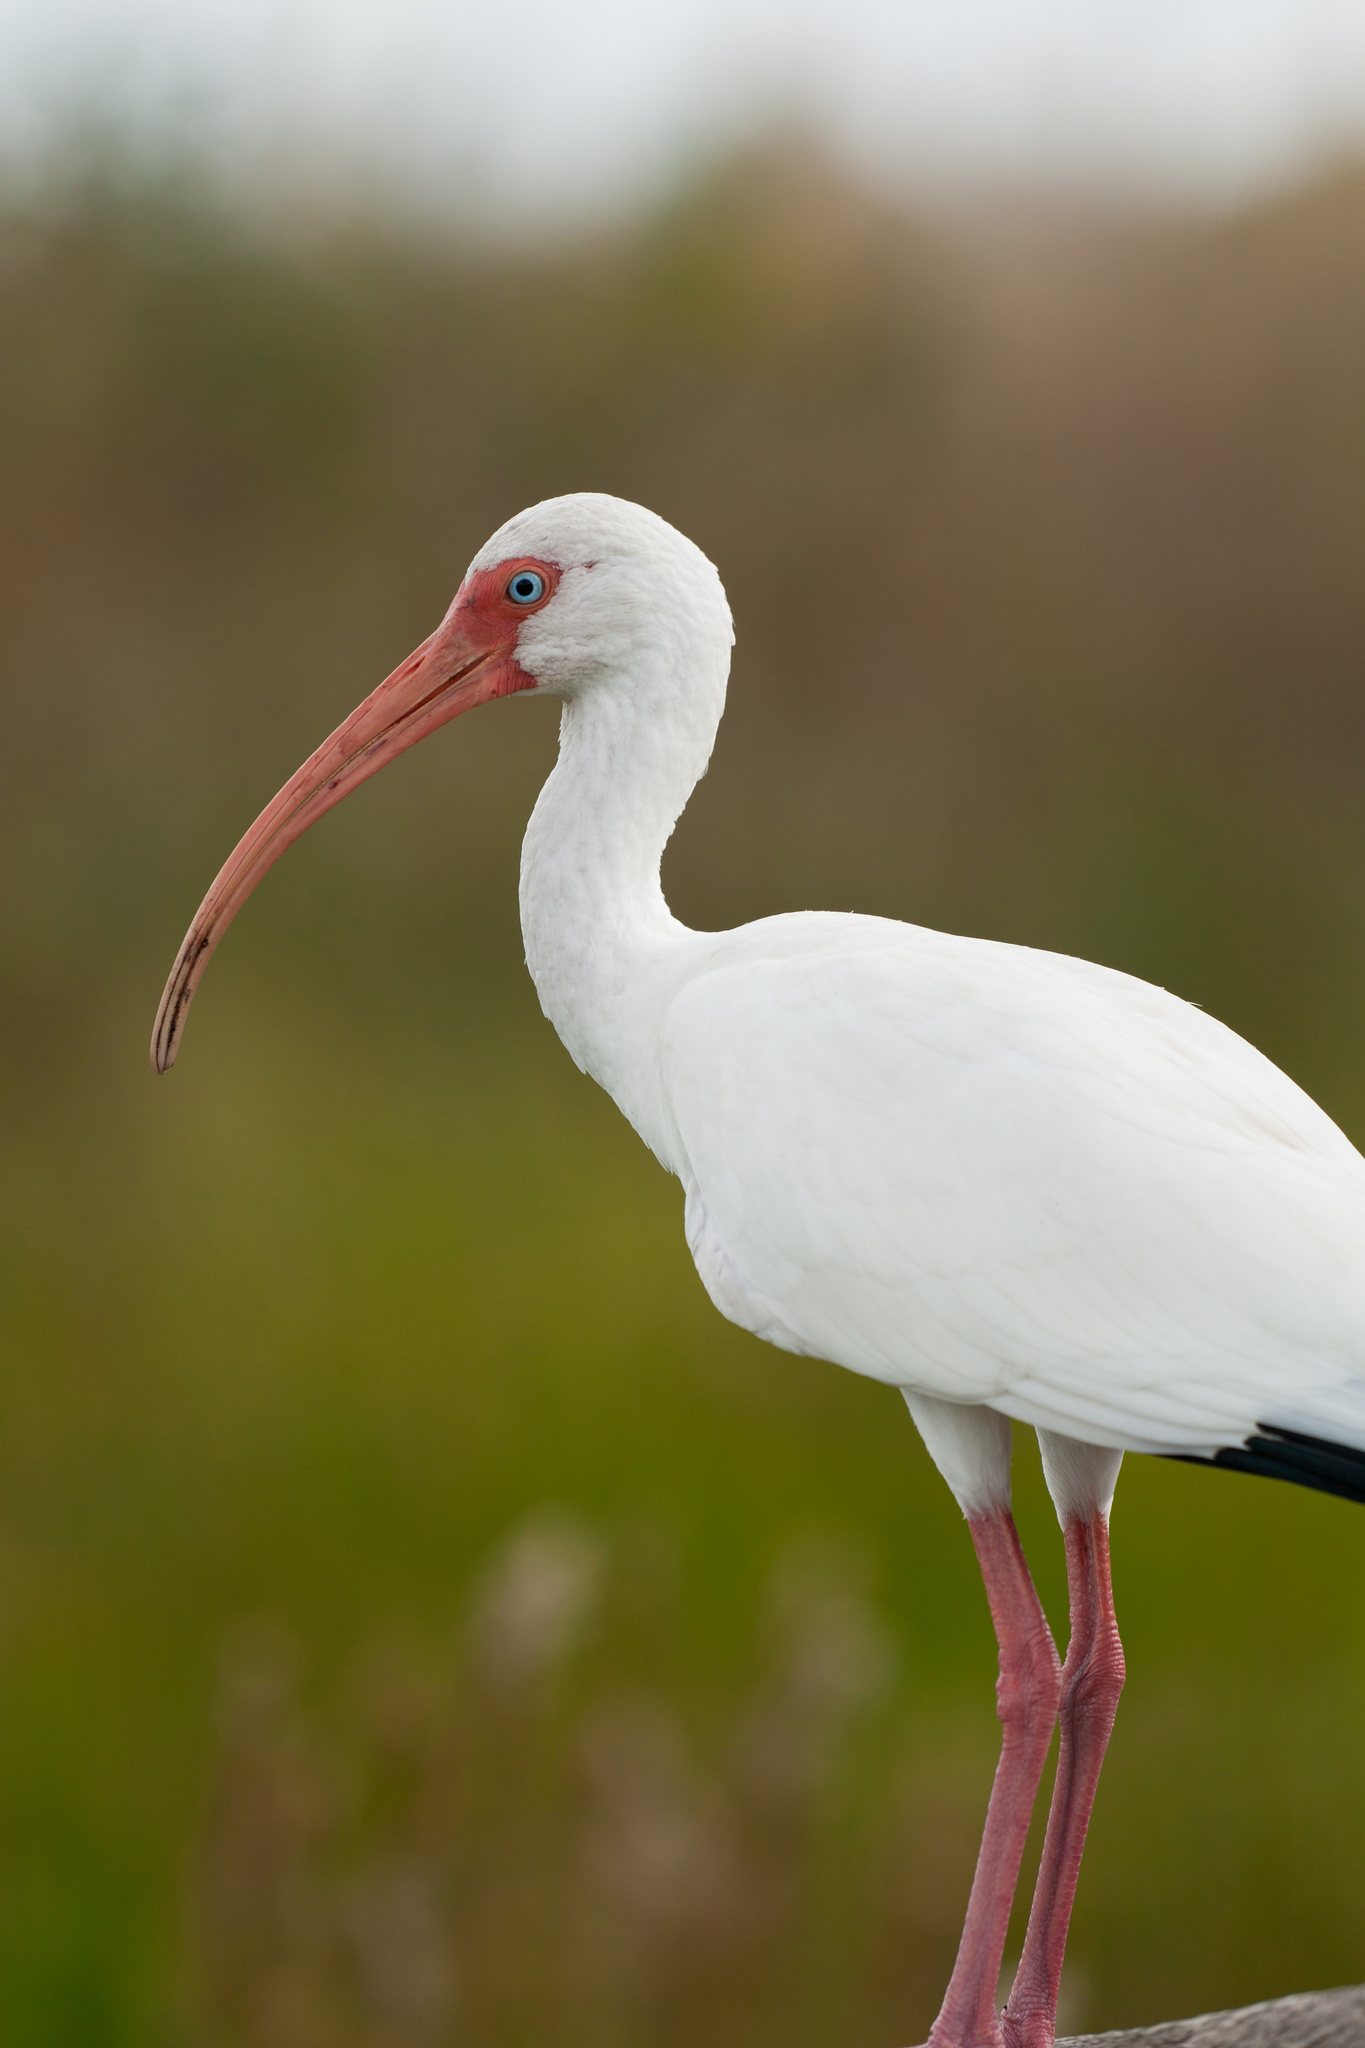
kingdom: Animalia
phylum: Chordata
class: Aves
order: Pelecaniformes
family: Threskiornithidae
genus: Eudocimus
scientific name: Eudocimus albus
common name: White ibis
